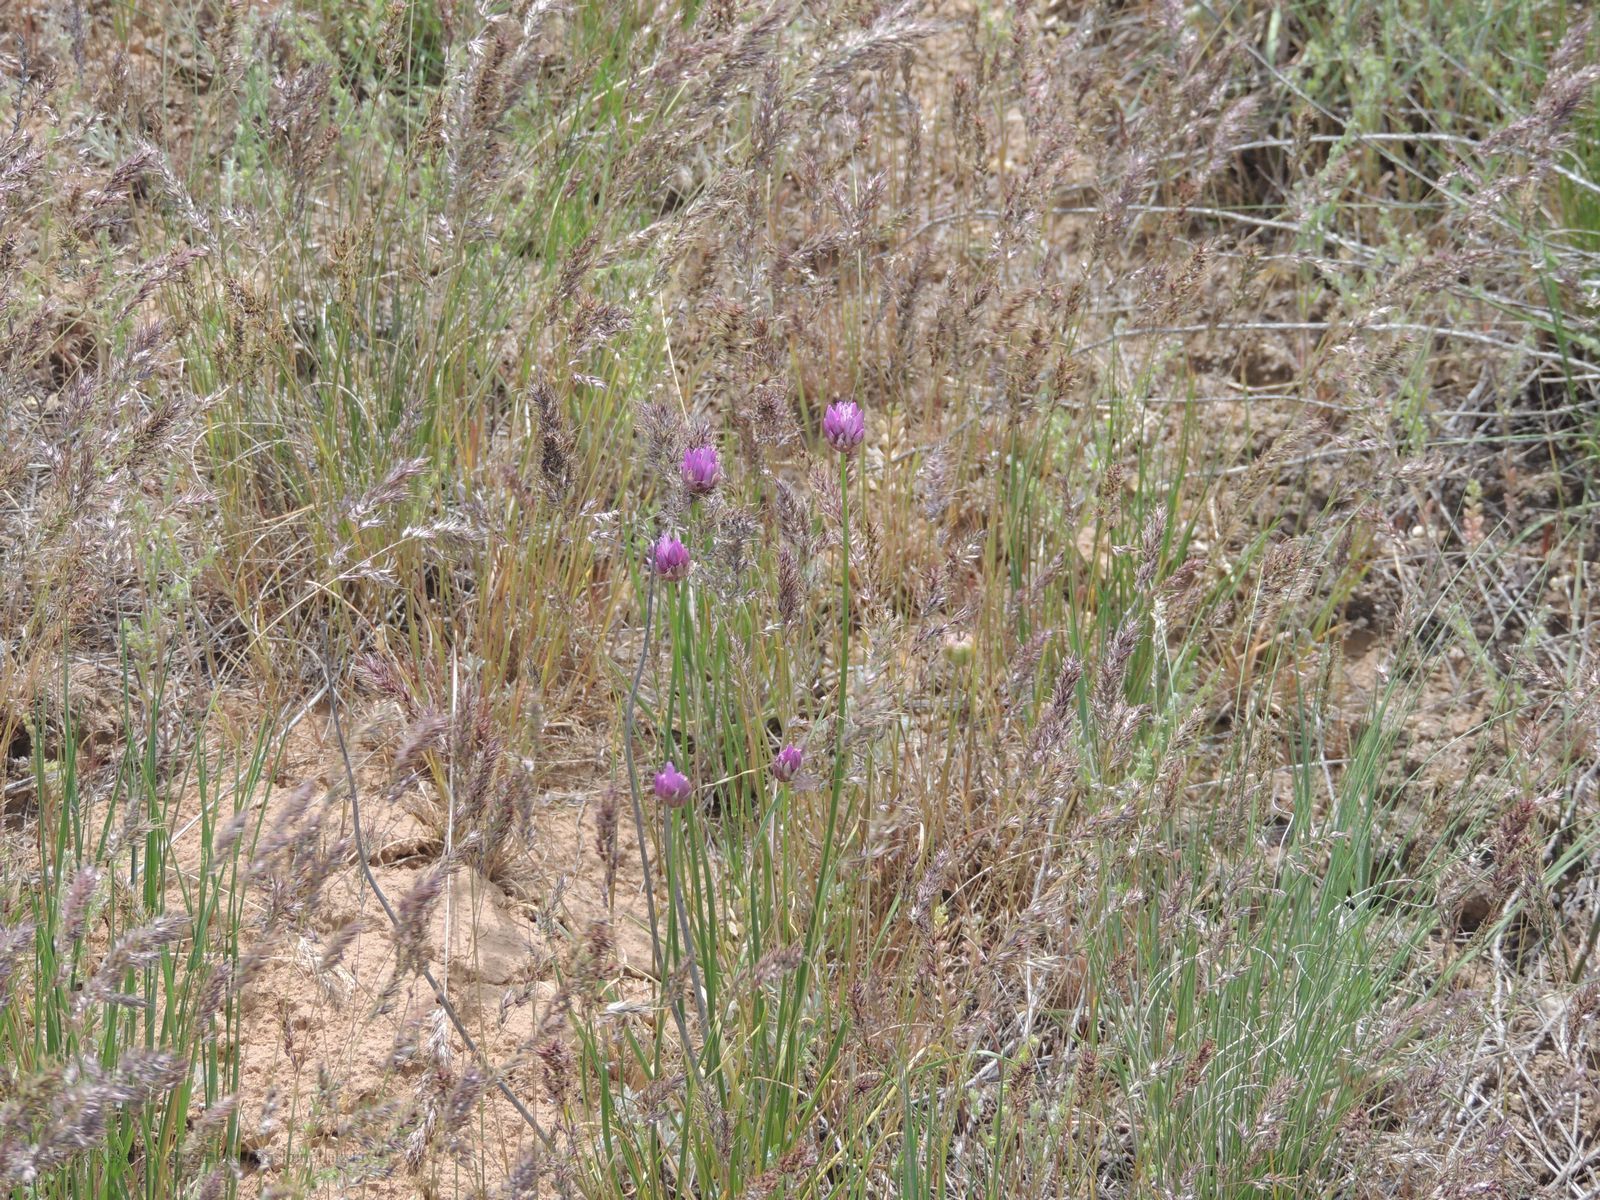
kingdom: Plantae
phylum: Tracheophyta
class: Liliopsida
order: Asparagales
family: Amaryllidaceae
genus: Allium
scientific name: Allium inderiense
